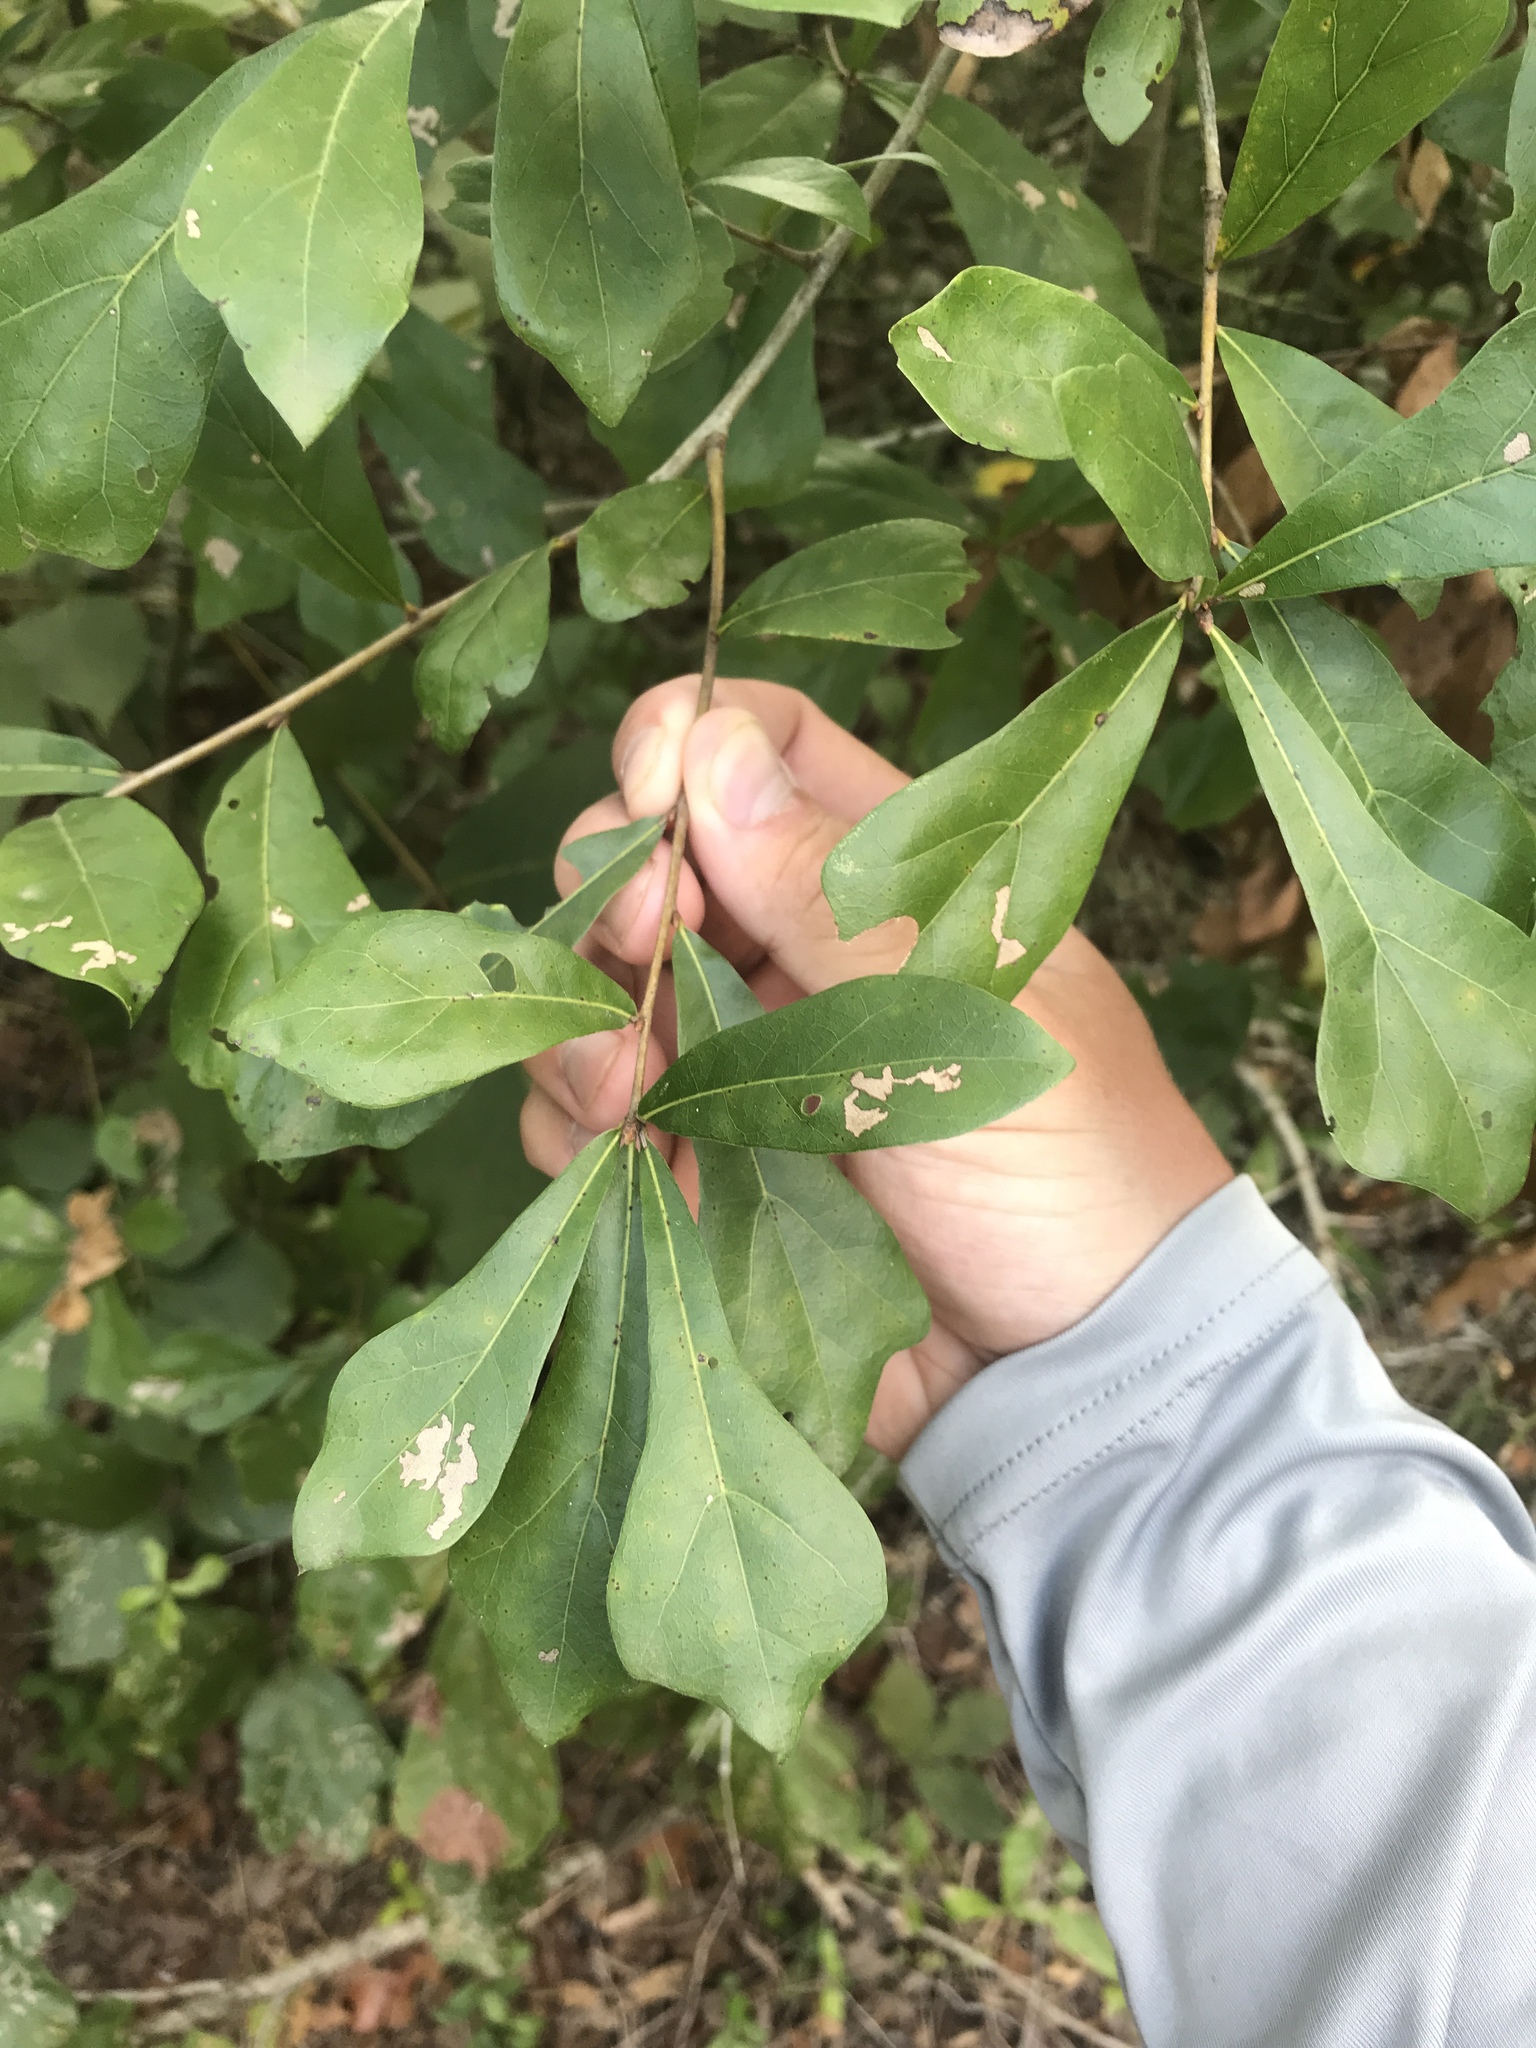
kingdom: Plantae
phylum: Tracheophyta
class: Magnoliopsida
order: Fagales
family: Fagaceae
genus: Quercus
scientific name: Quercus nigra
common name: Water oak
